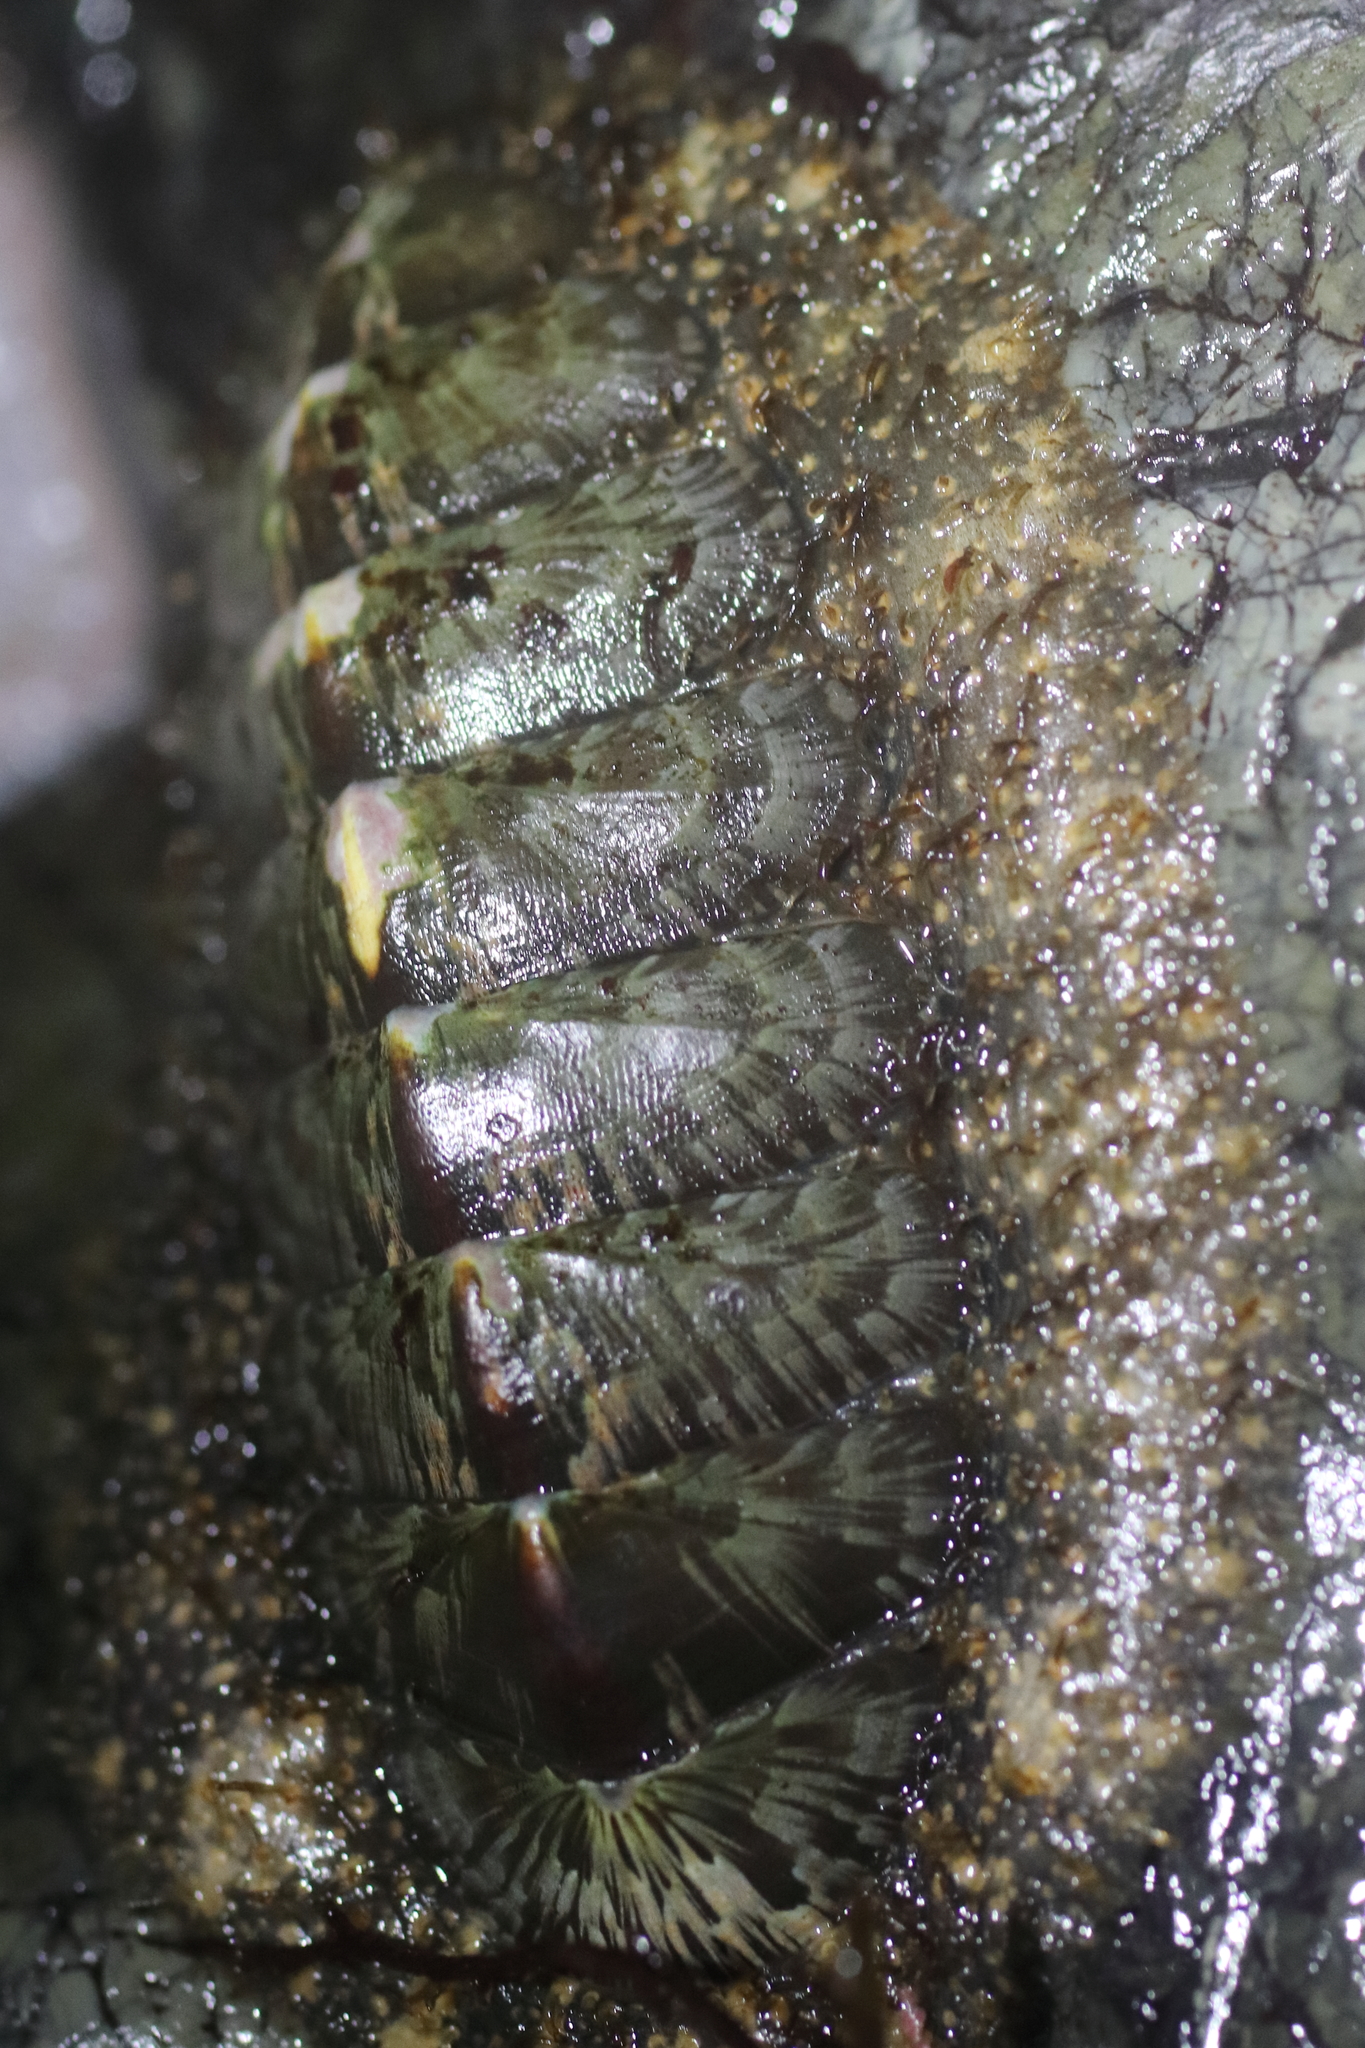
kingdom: Animalia
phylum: Mollusca
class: Polyplacophora
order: Chitonida
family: Mopaliidae
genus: Mopalia
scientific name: Mopalia lignosa
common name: Woody chiton
